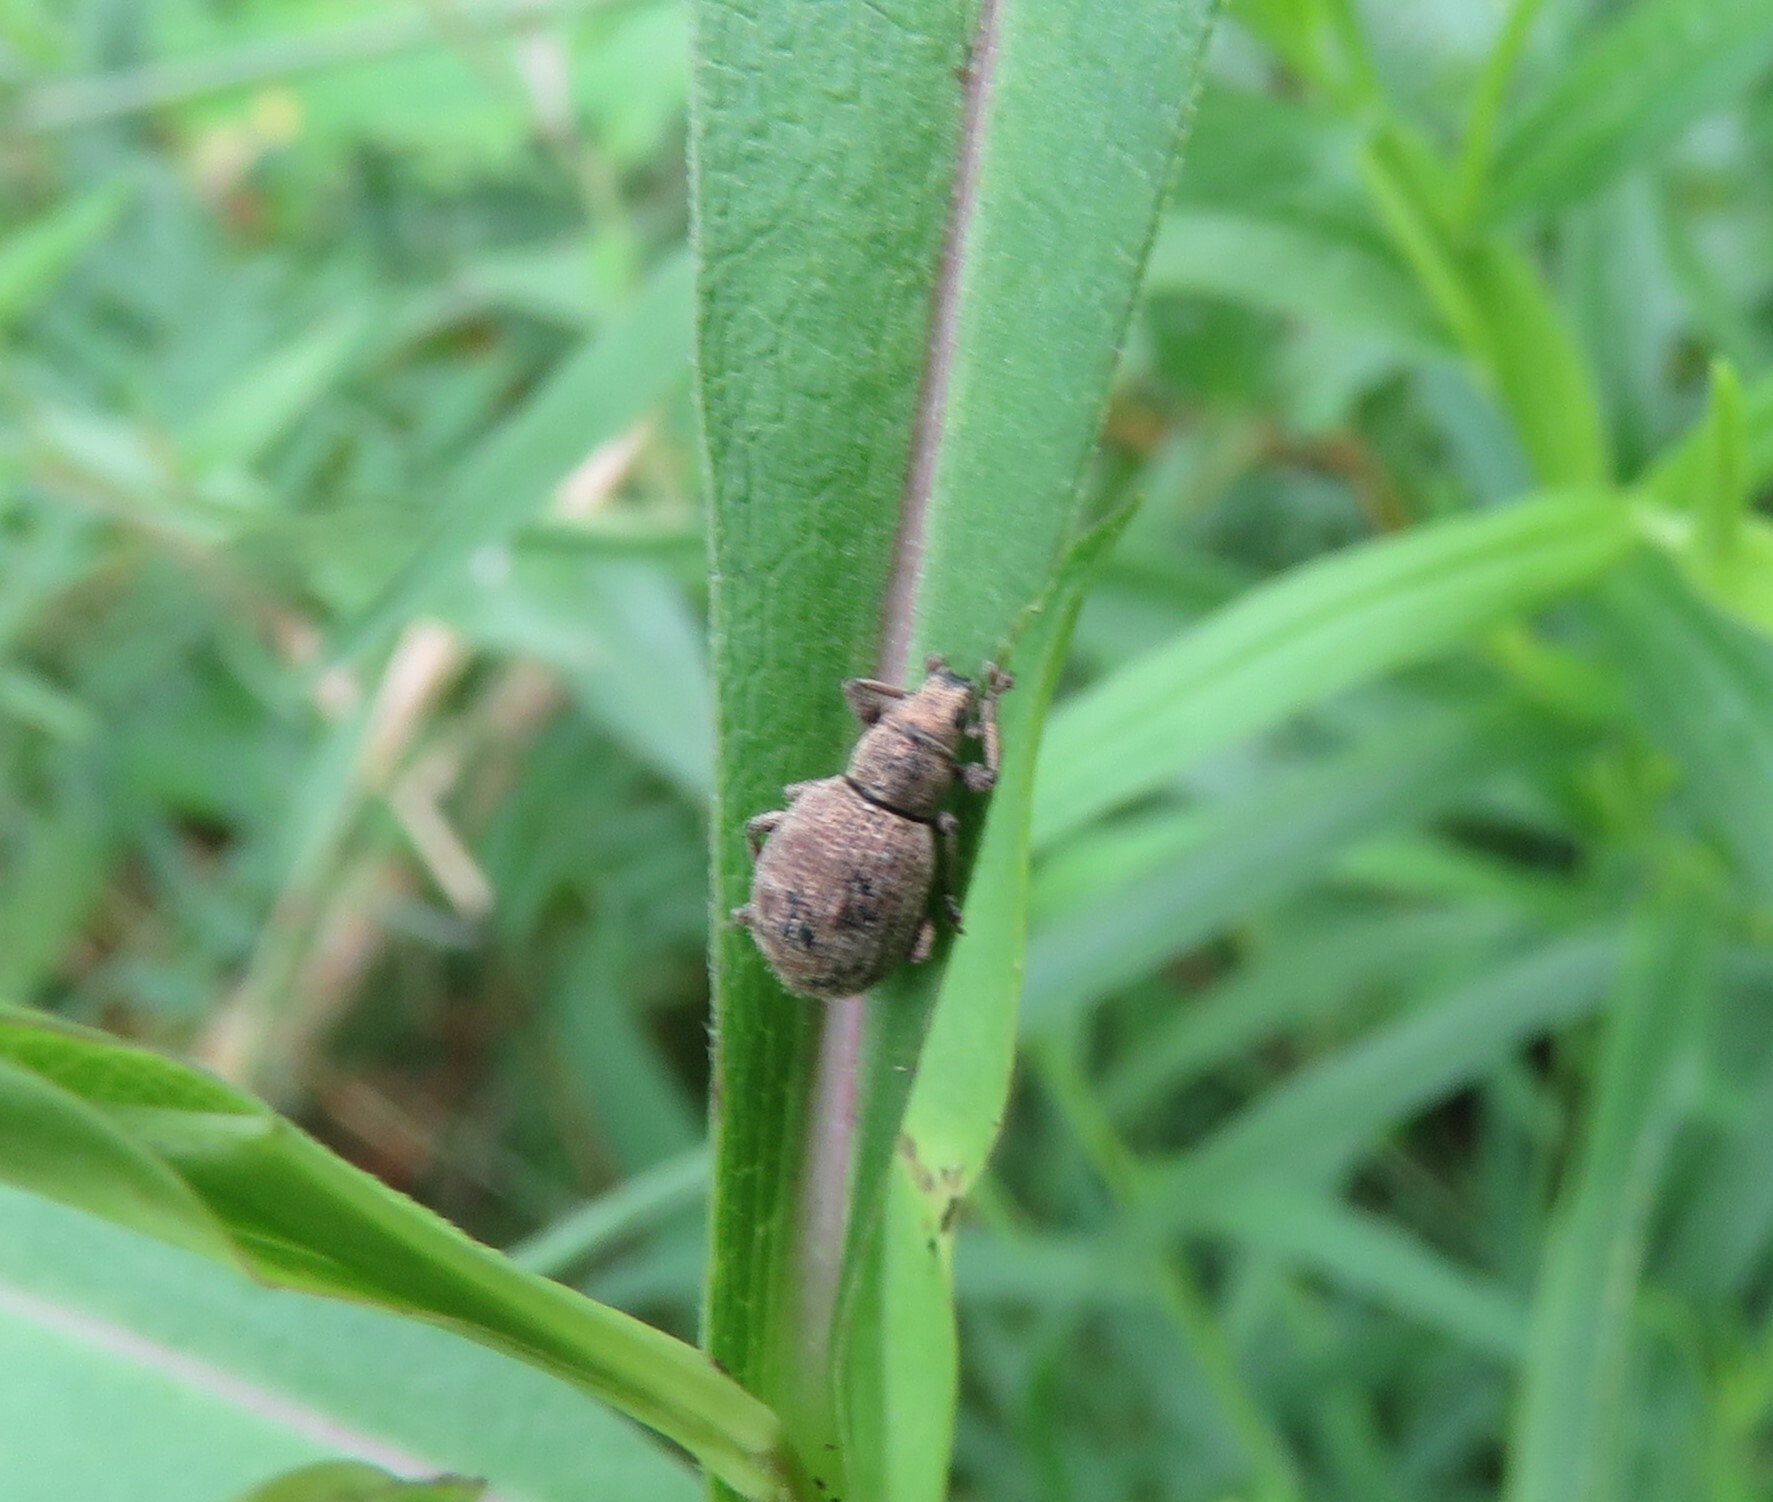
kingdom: Animalia
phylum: Arthropoda
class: Insecta
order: Coleoptera
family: Curculionidae
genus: Sciaphilus
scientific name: Sciaphilus asperatus
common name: Weevil
